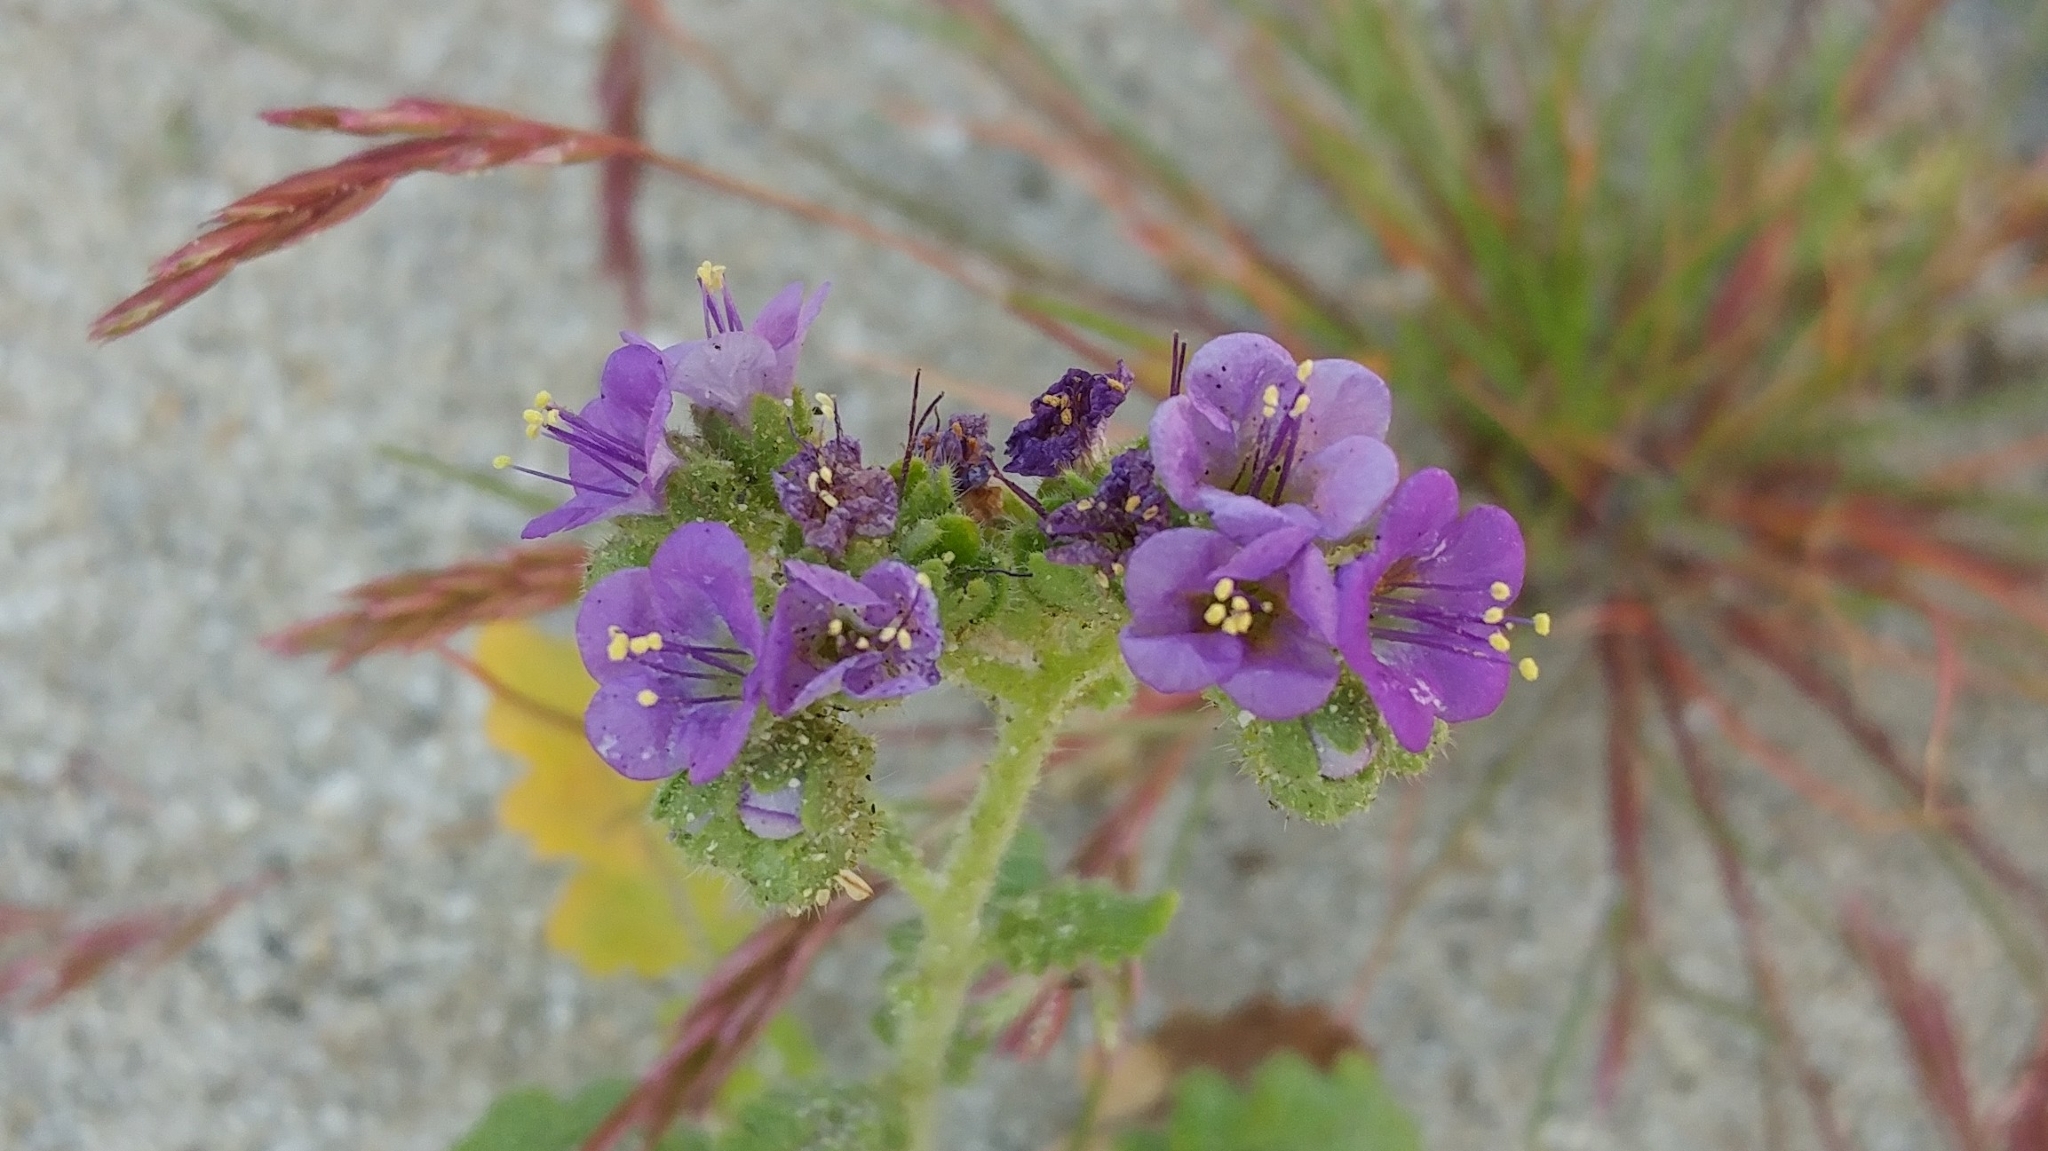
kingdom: Plantae
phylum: Tracheophyta
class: Magnoliopsida
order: Boraginales
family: Hydrophyllaceae
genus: Phacelia
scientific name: Phacelia crenulata
